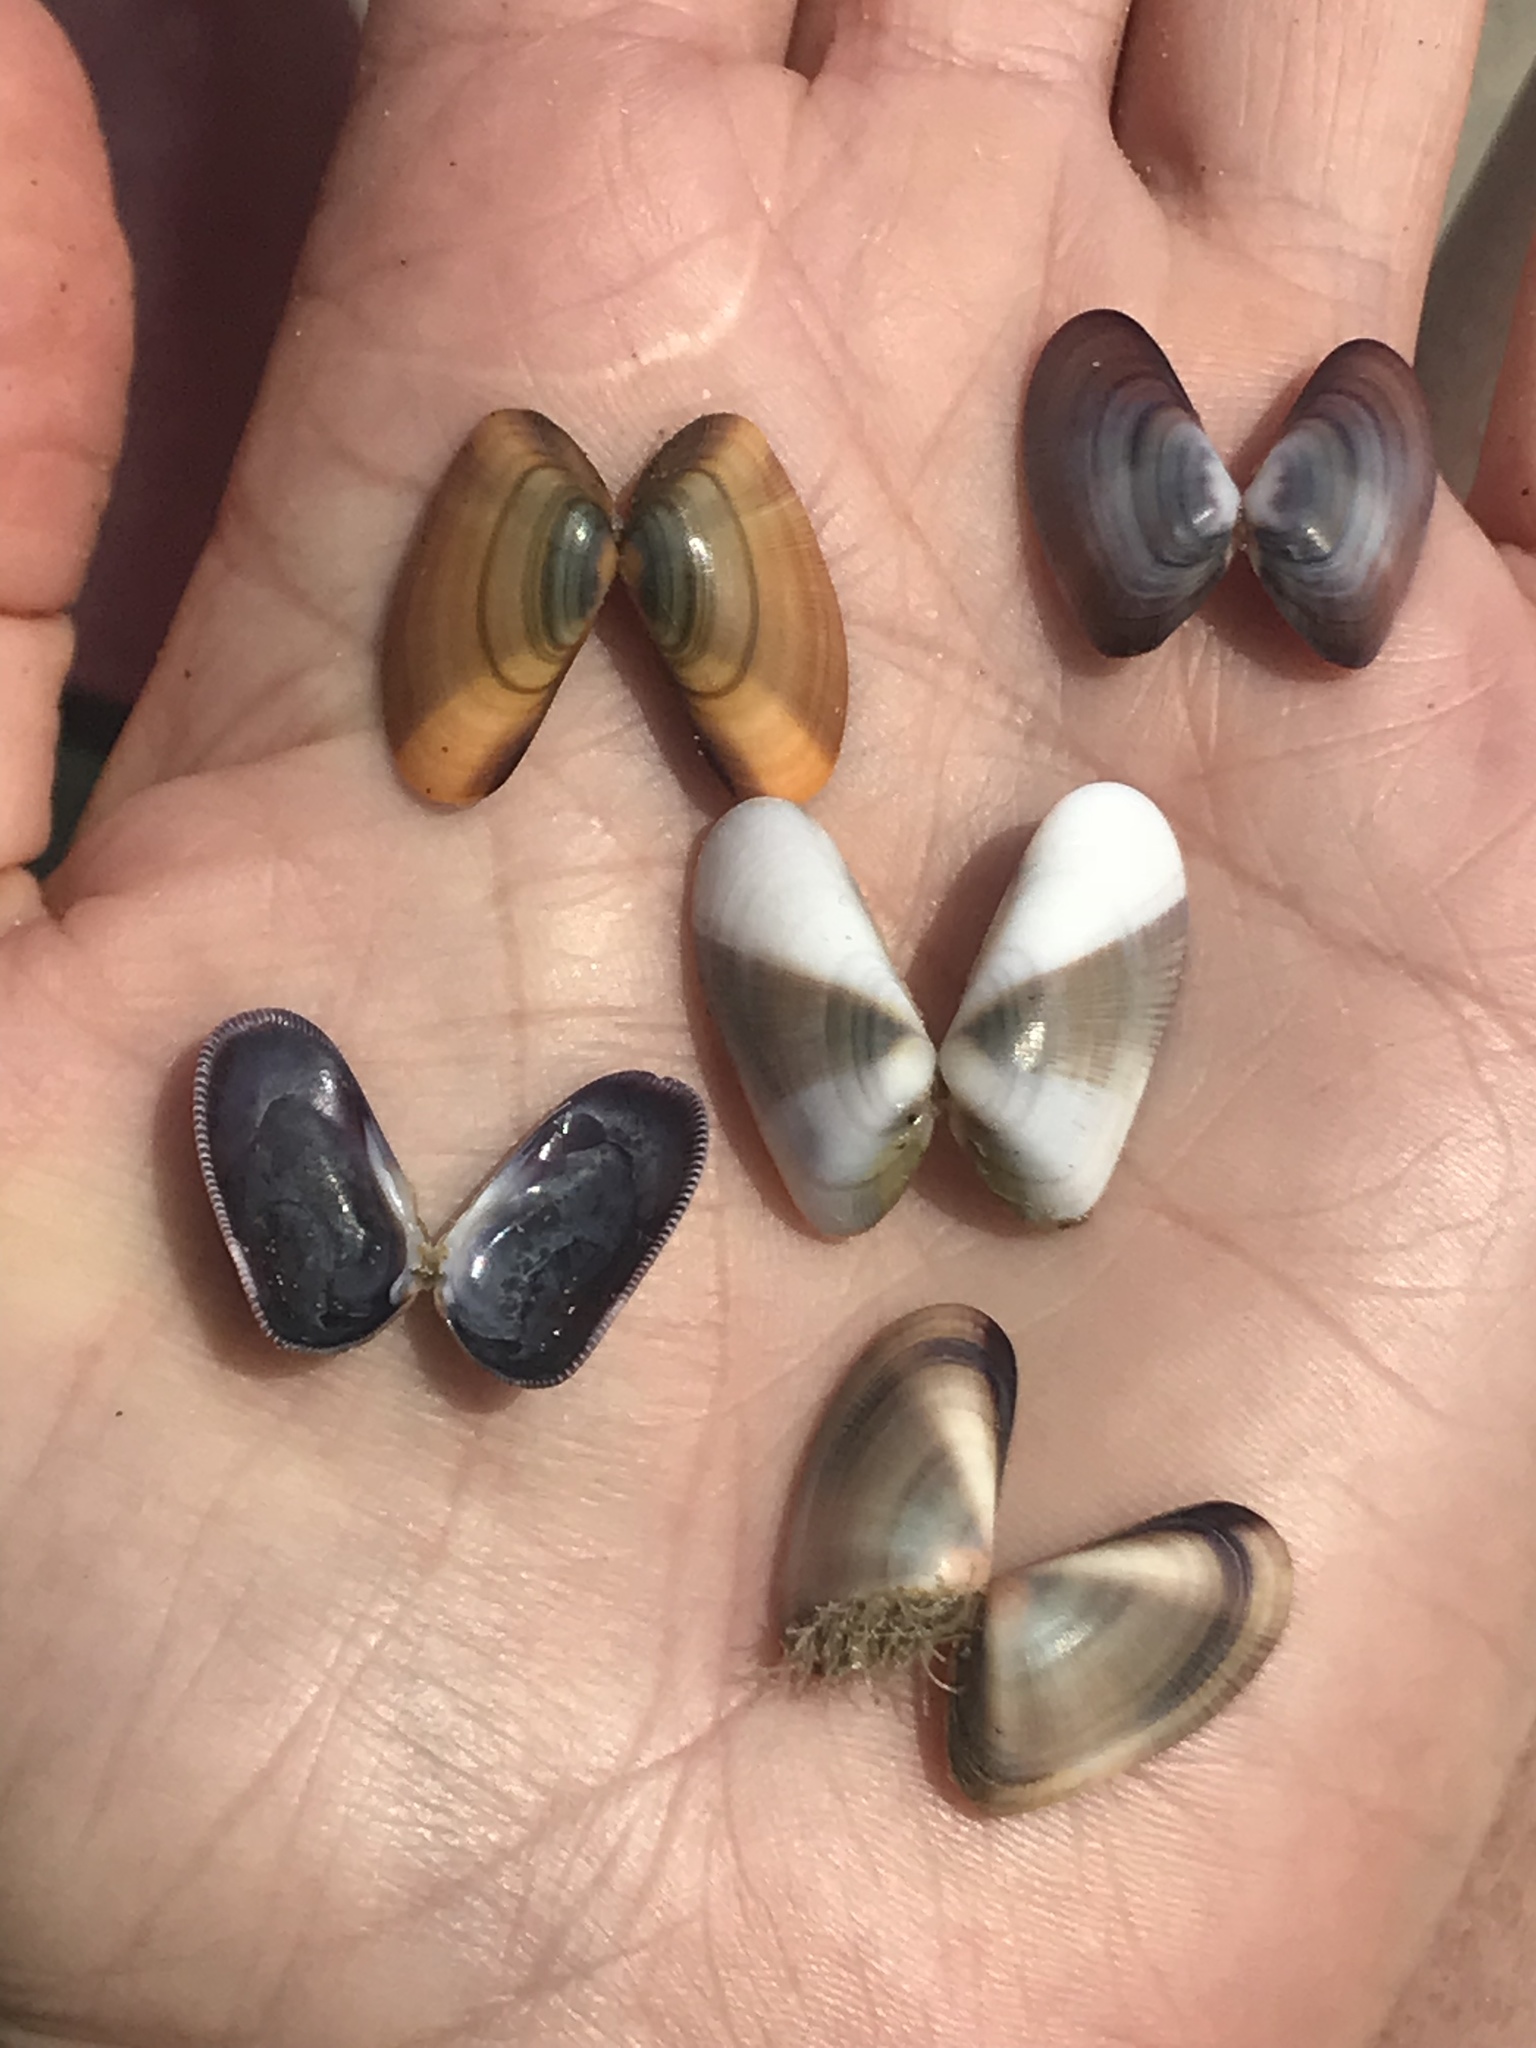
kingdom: Animalia
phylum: Mollusca
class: Bivalvia
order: Cardiida
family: Donacidae
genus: Donax
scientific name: Donax gouldii
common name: Gould beanclam
